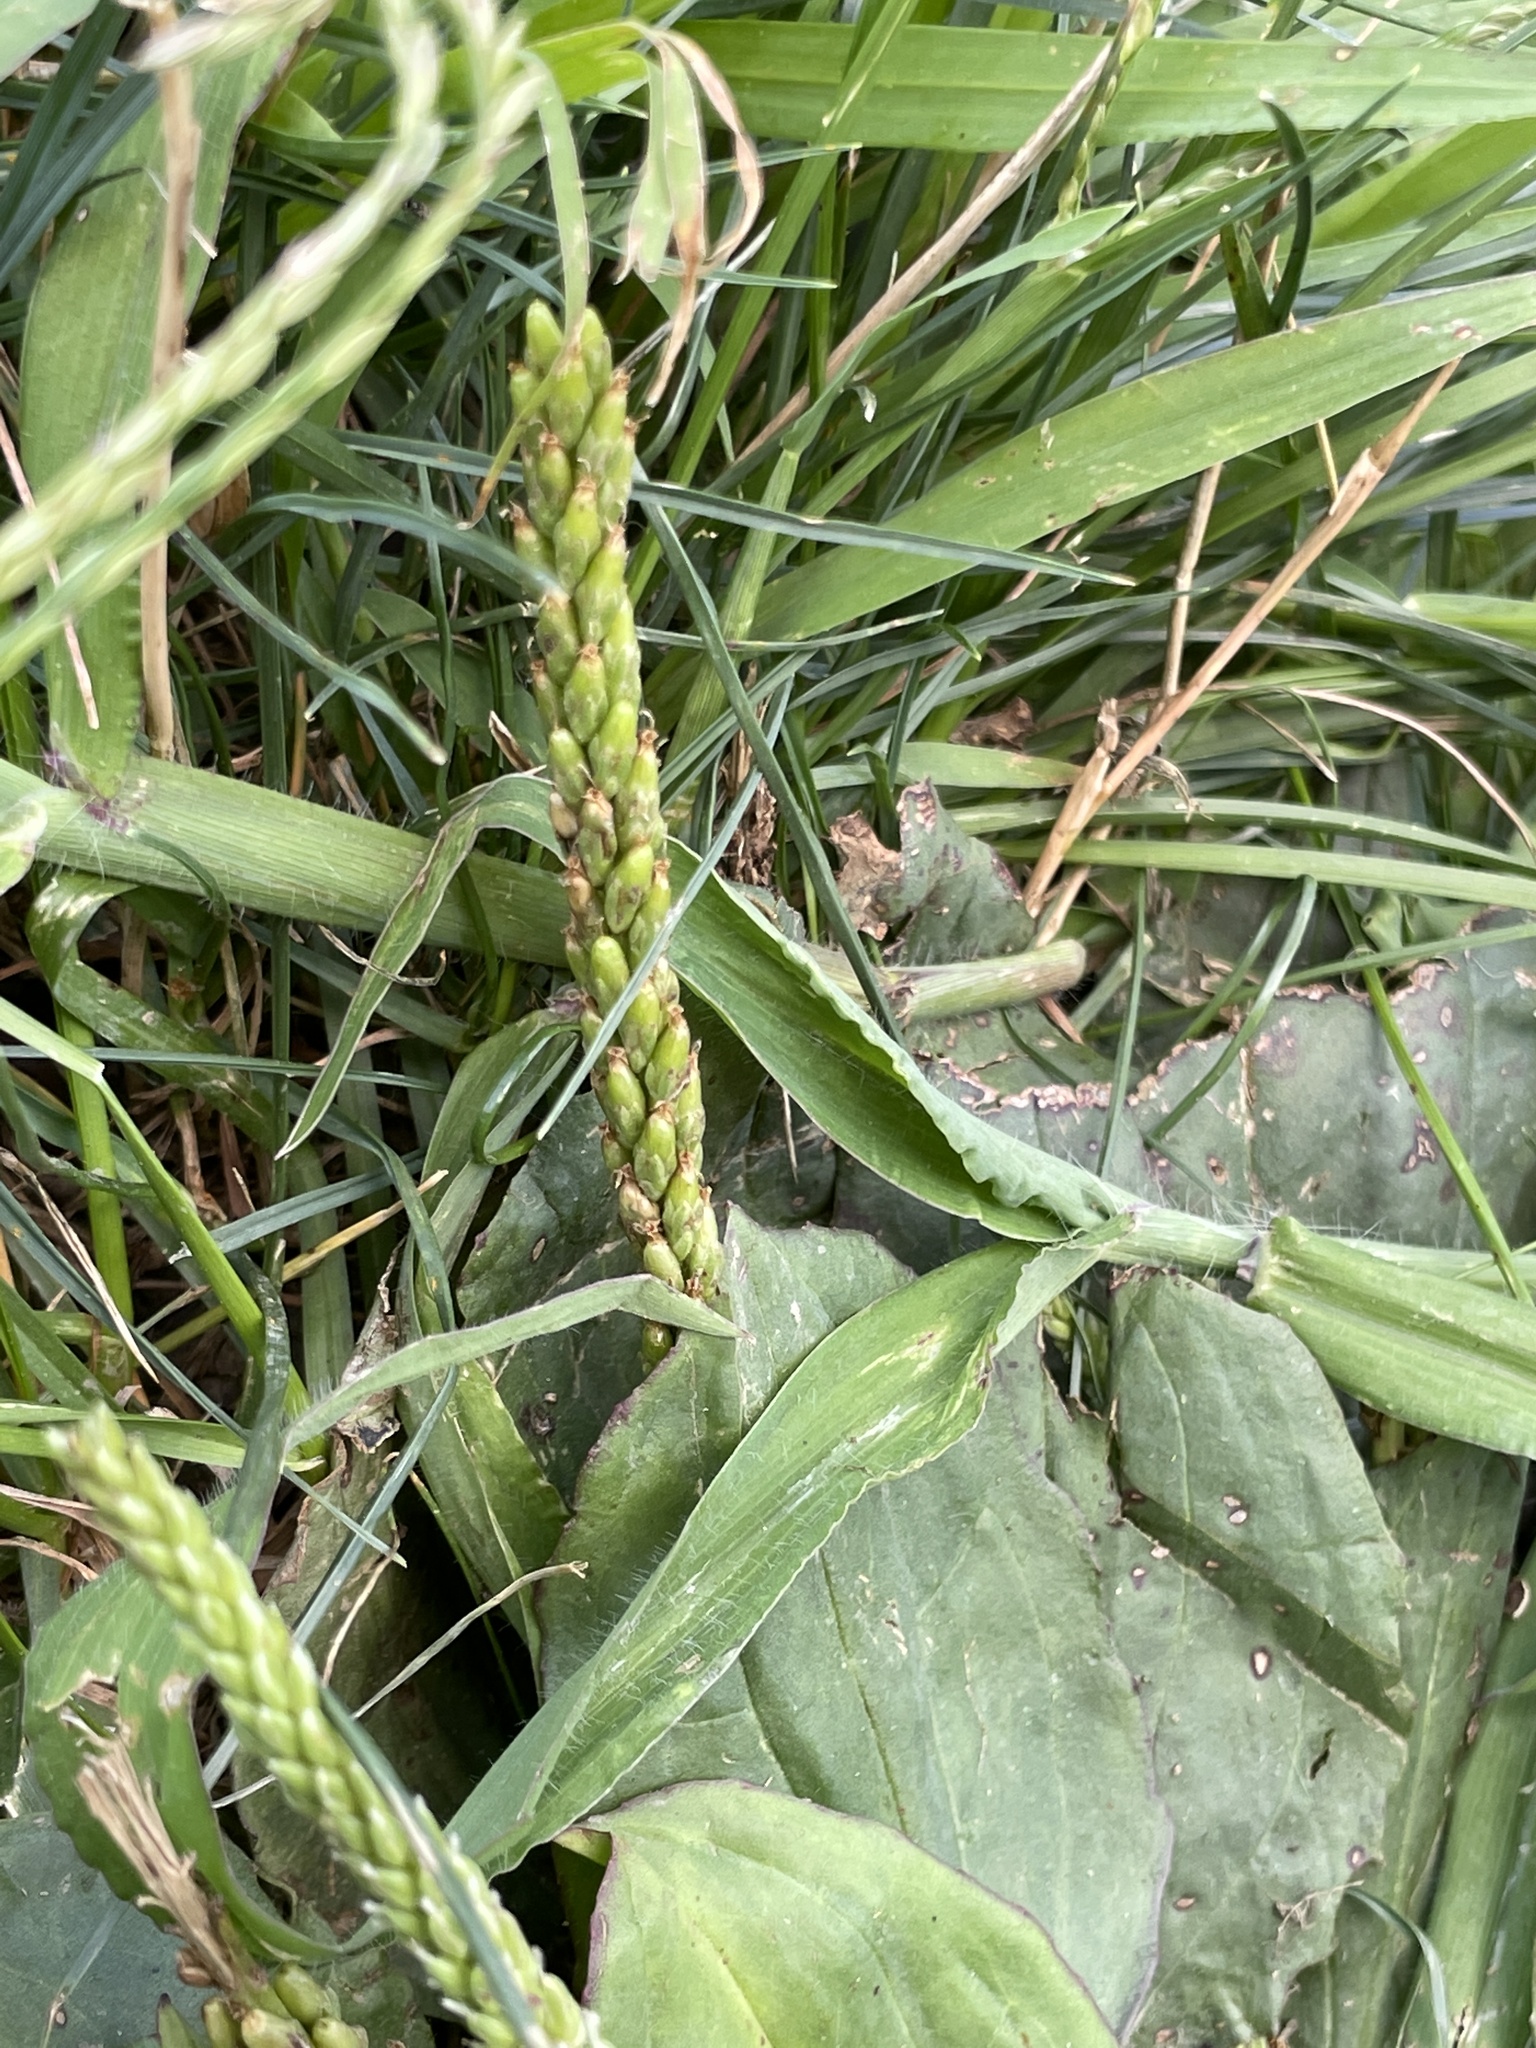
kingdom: Plantae
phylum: Tracheophyta
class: Magnoliopsida
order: Lamiales
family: Plantaginaceae
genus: Plantago
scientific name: Plantago rugelii
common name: American plantain
